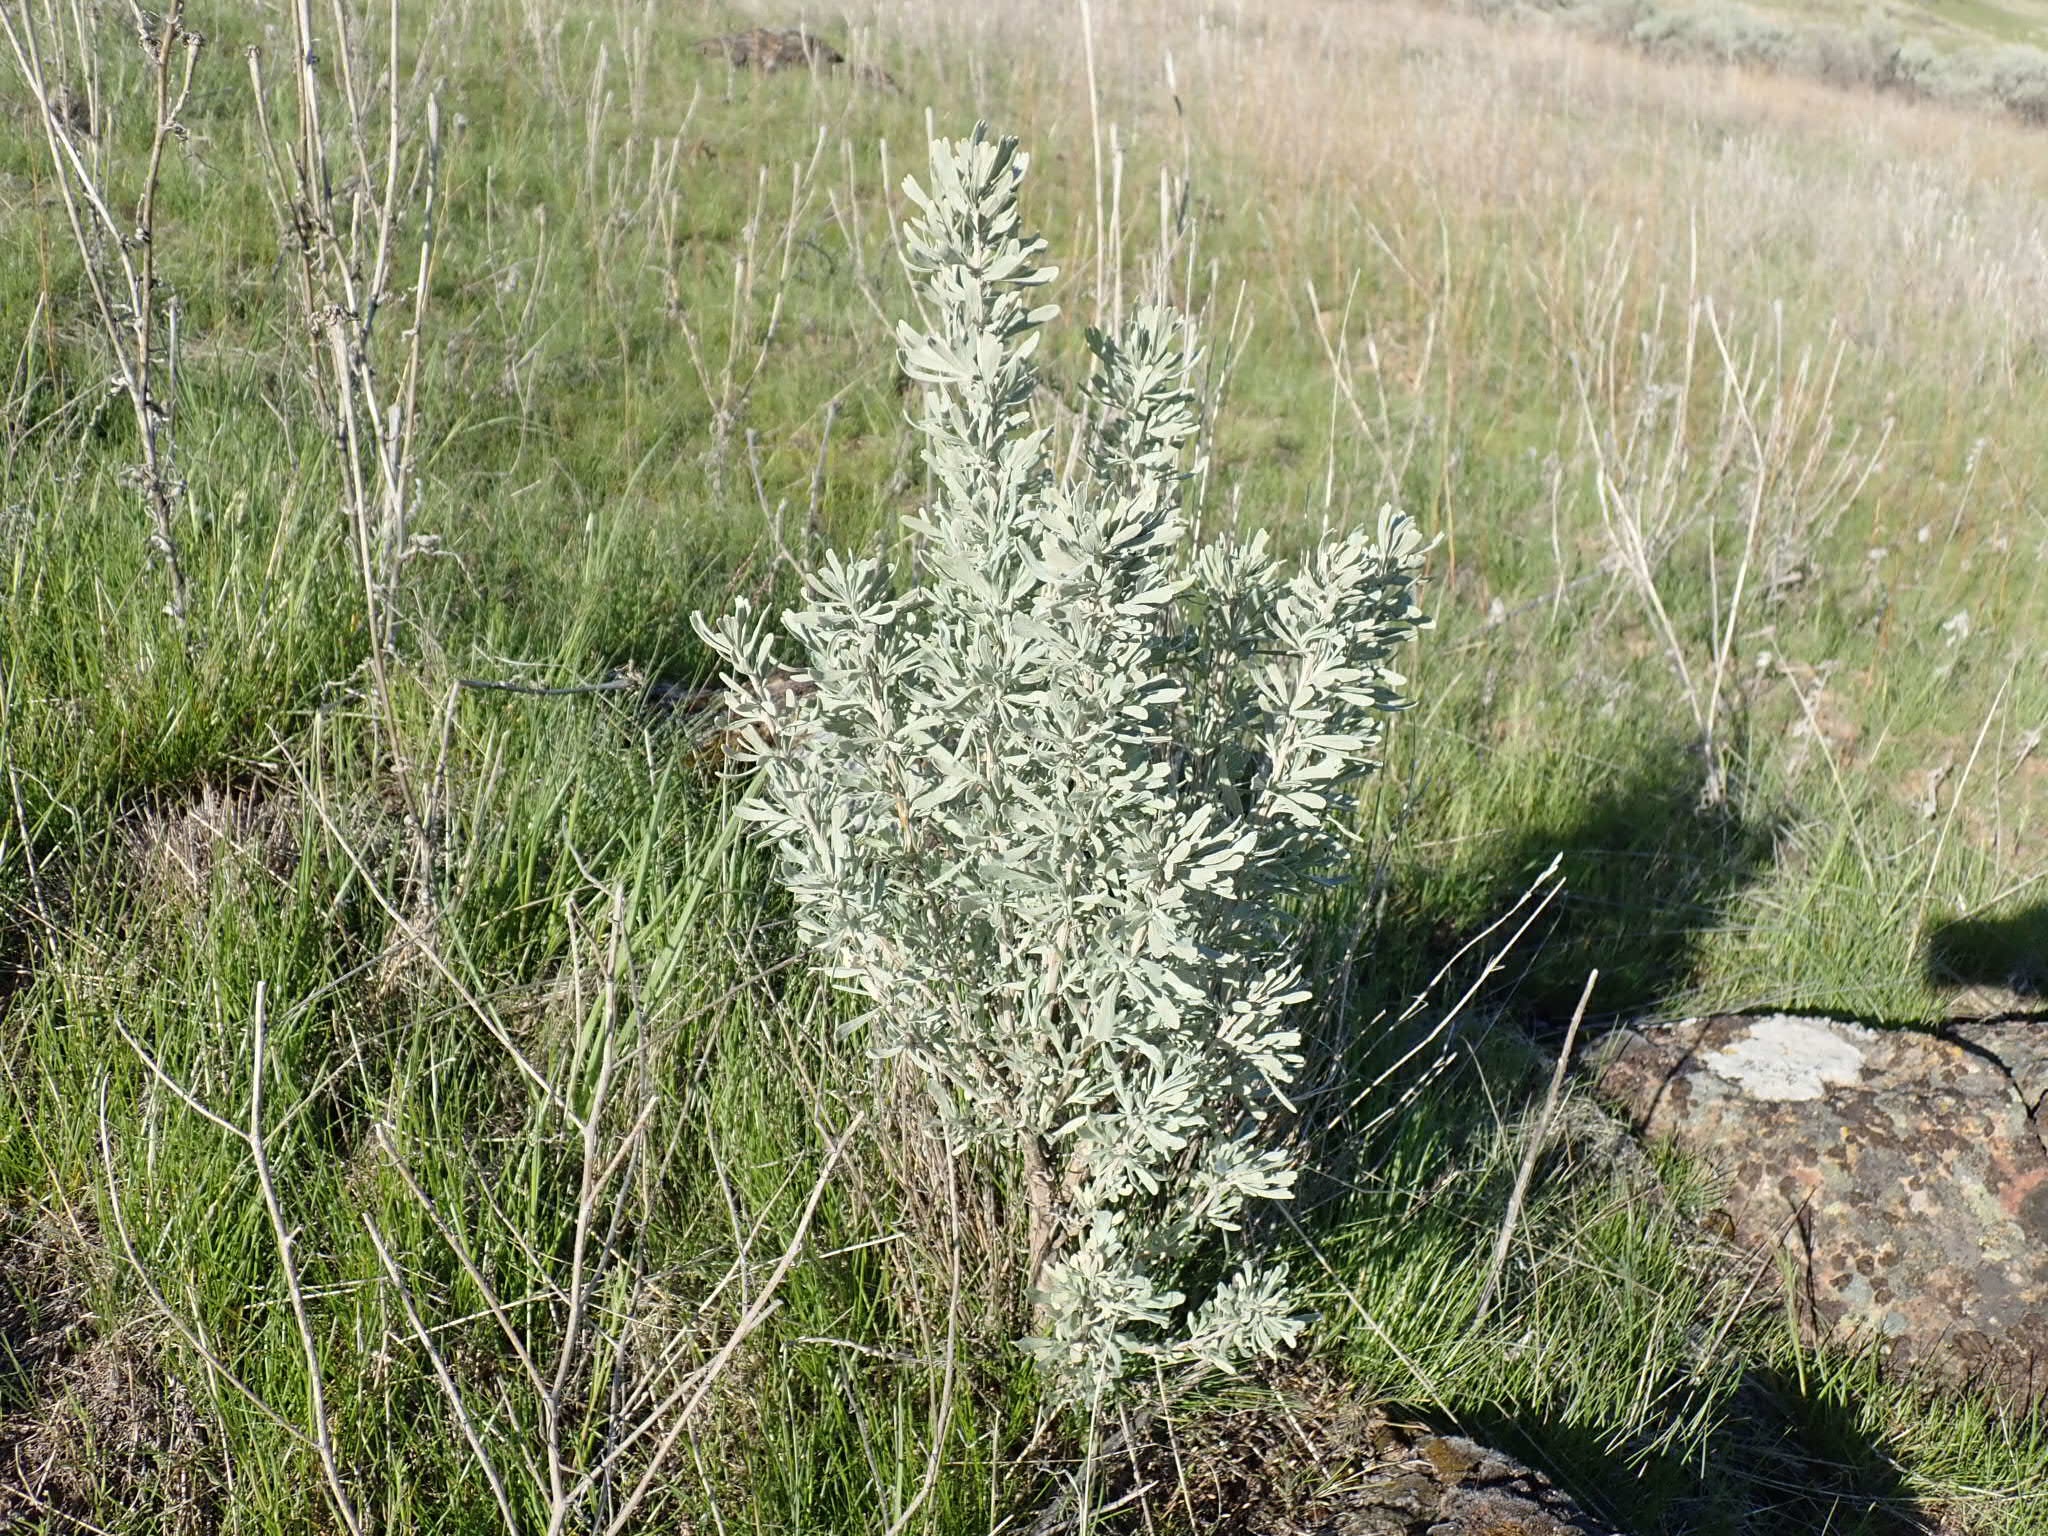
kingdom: Plantae
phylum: Tracheophyta
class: Magnoliopsida
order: Asterales
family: Asteraceae
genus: Artemisia
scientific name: Artemisia tridentata
